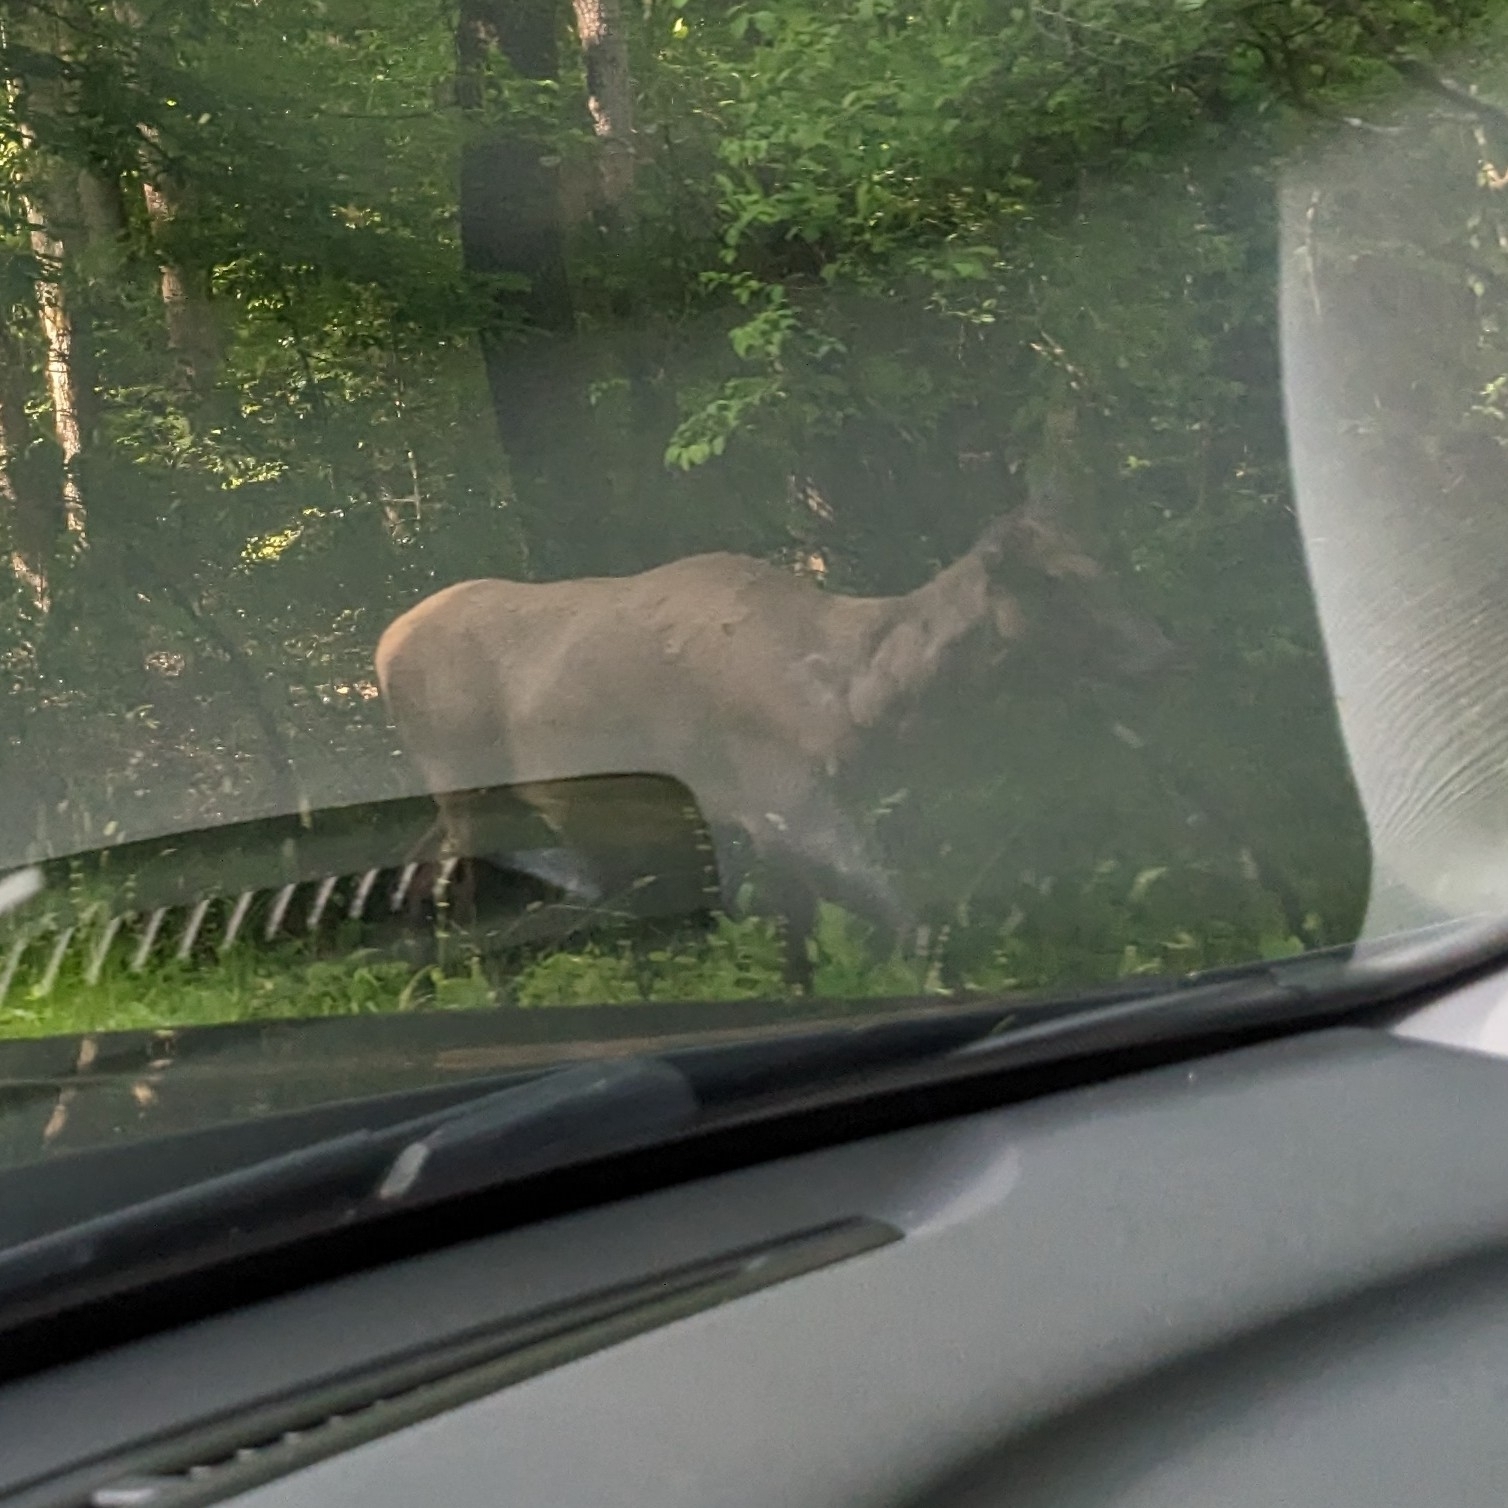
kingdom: Animalia
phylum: Chordata
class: Mammalia
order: Artiodactyla
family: Cervidae
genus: Cervus
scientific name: Cervus elaphus
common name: Red deer
